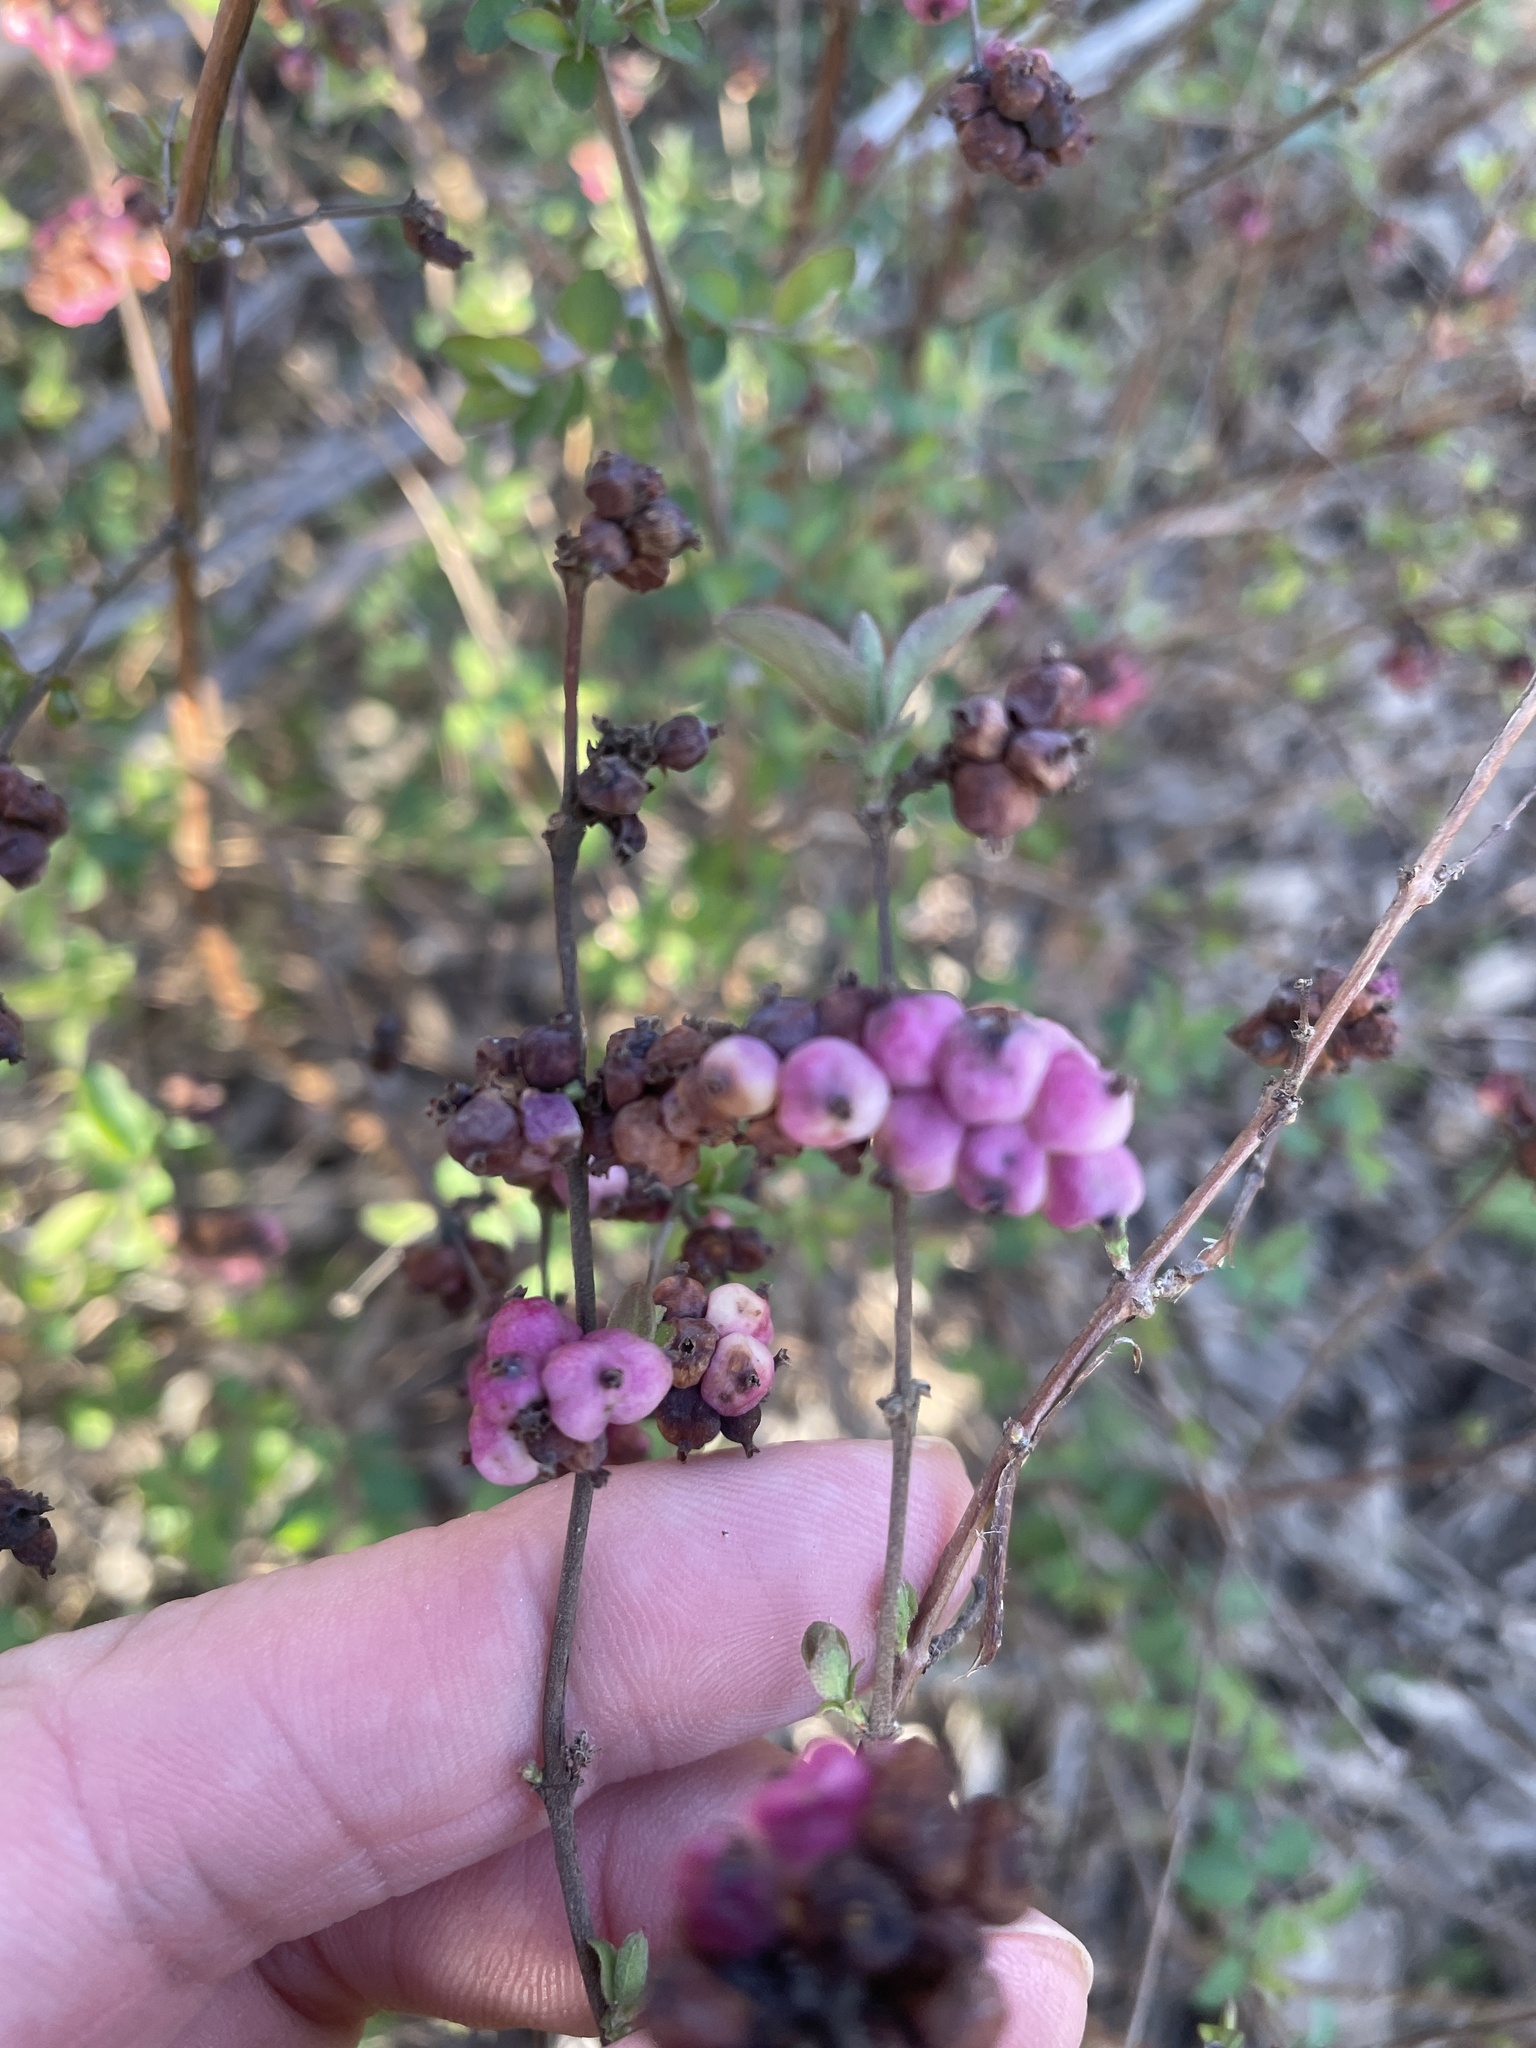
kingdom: Plantae
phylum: Tracheophyta
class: Magnoliopsida
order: Dipsacales
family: Caprifoliaceae
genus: Symphoricarpos
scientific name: Symphoricarpos orbiculatus
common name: Coralberry
